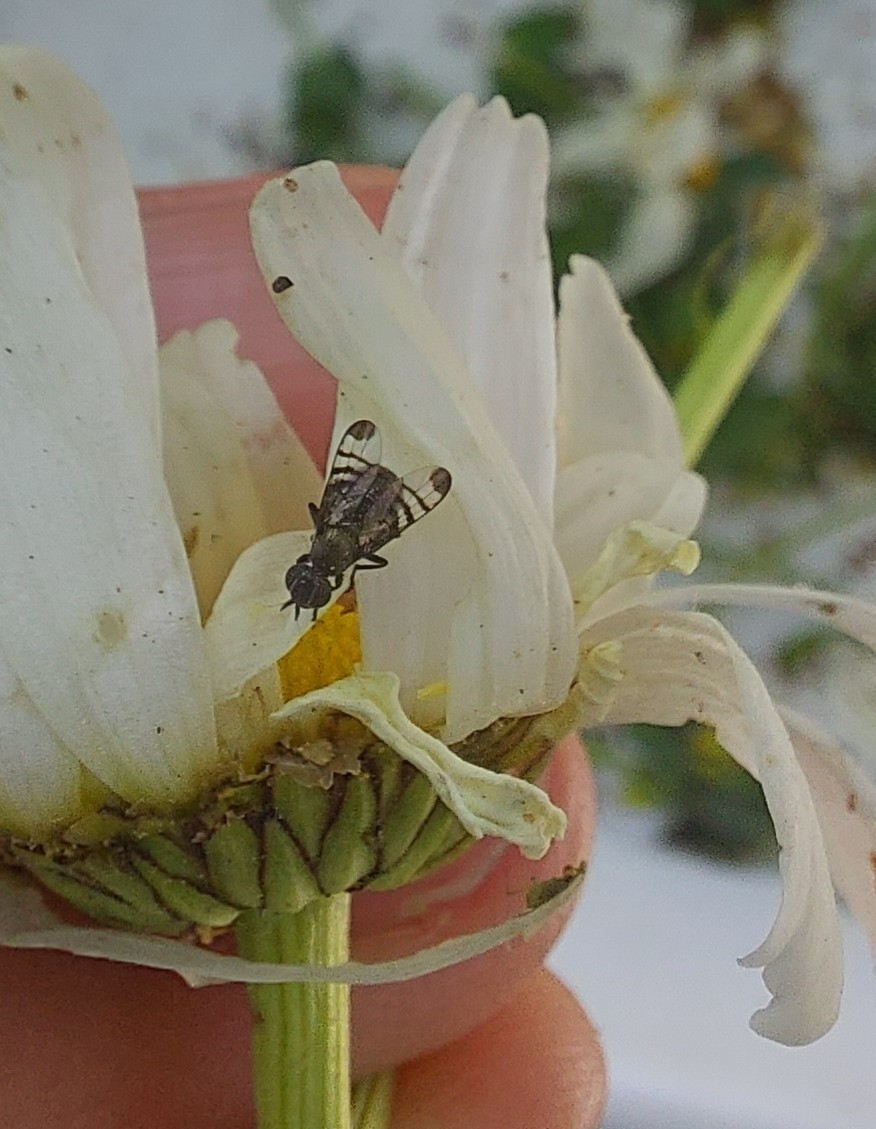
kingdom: Animalia
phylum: Arthropoda
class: Insecta
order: Diptera
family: Platystomatidae
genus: Rivellia
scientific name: Rivellia syngenesiae
